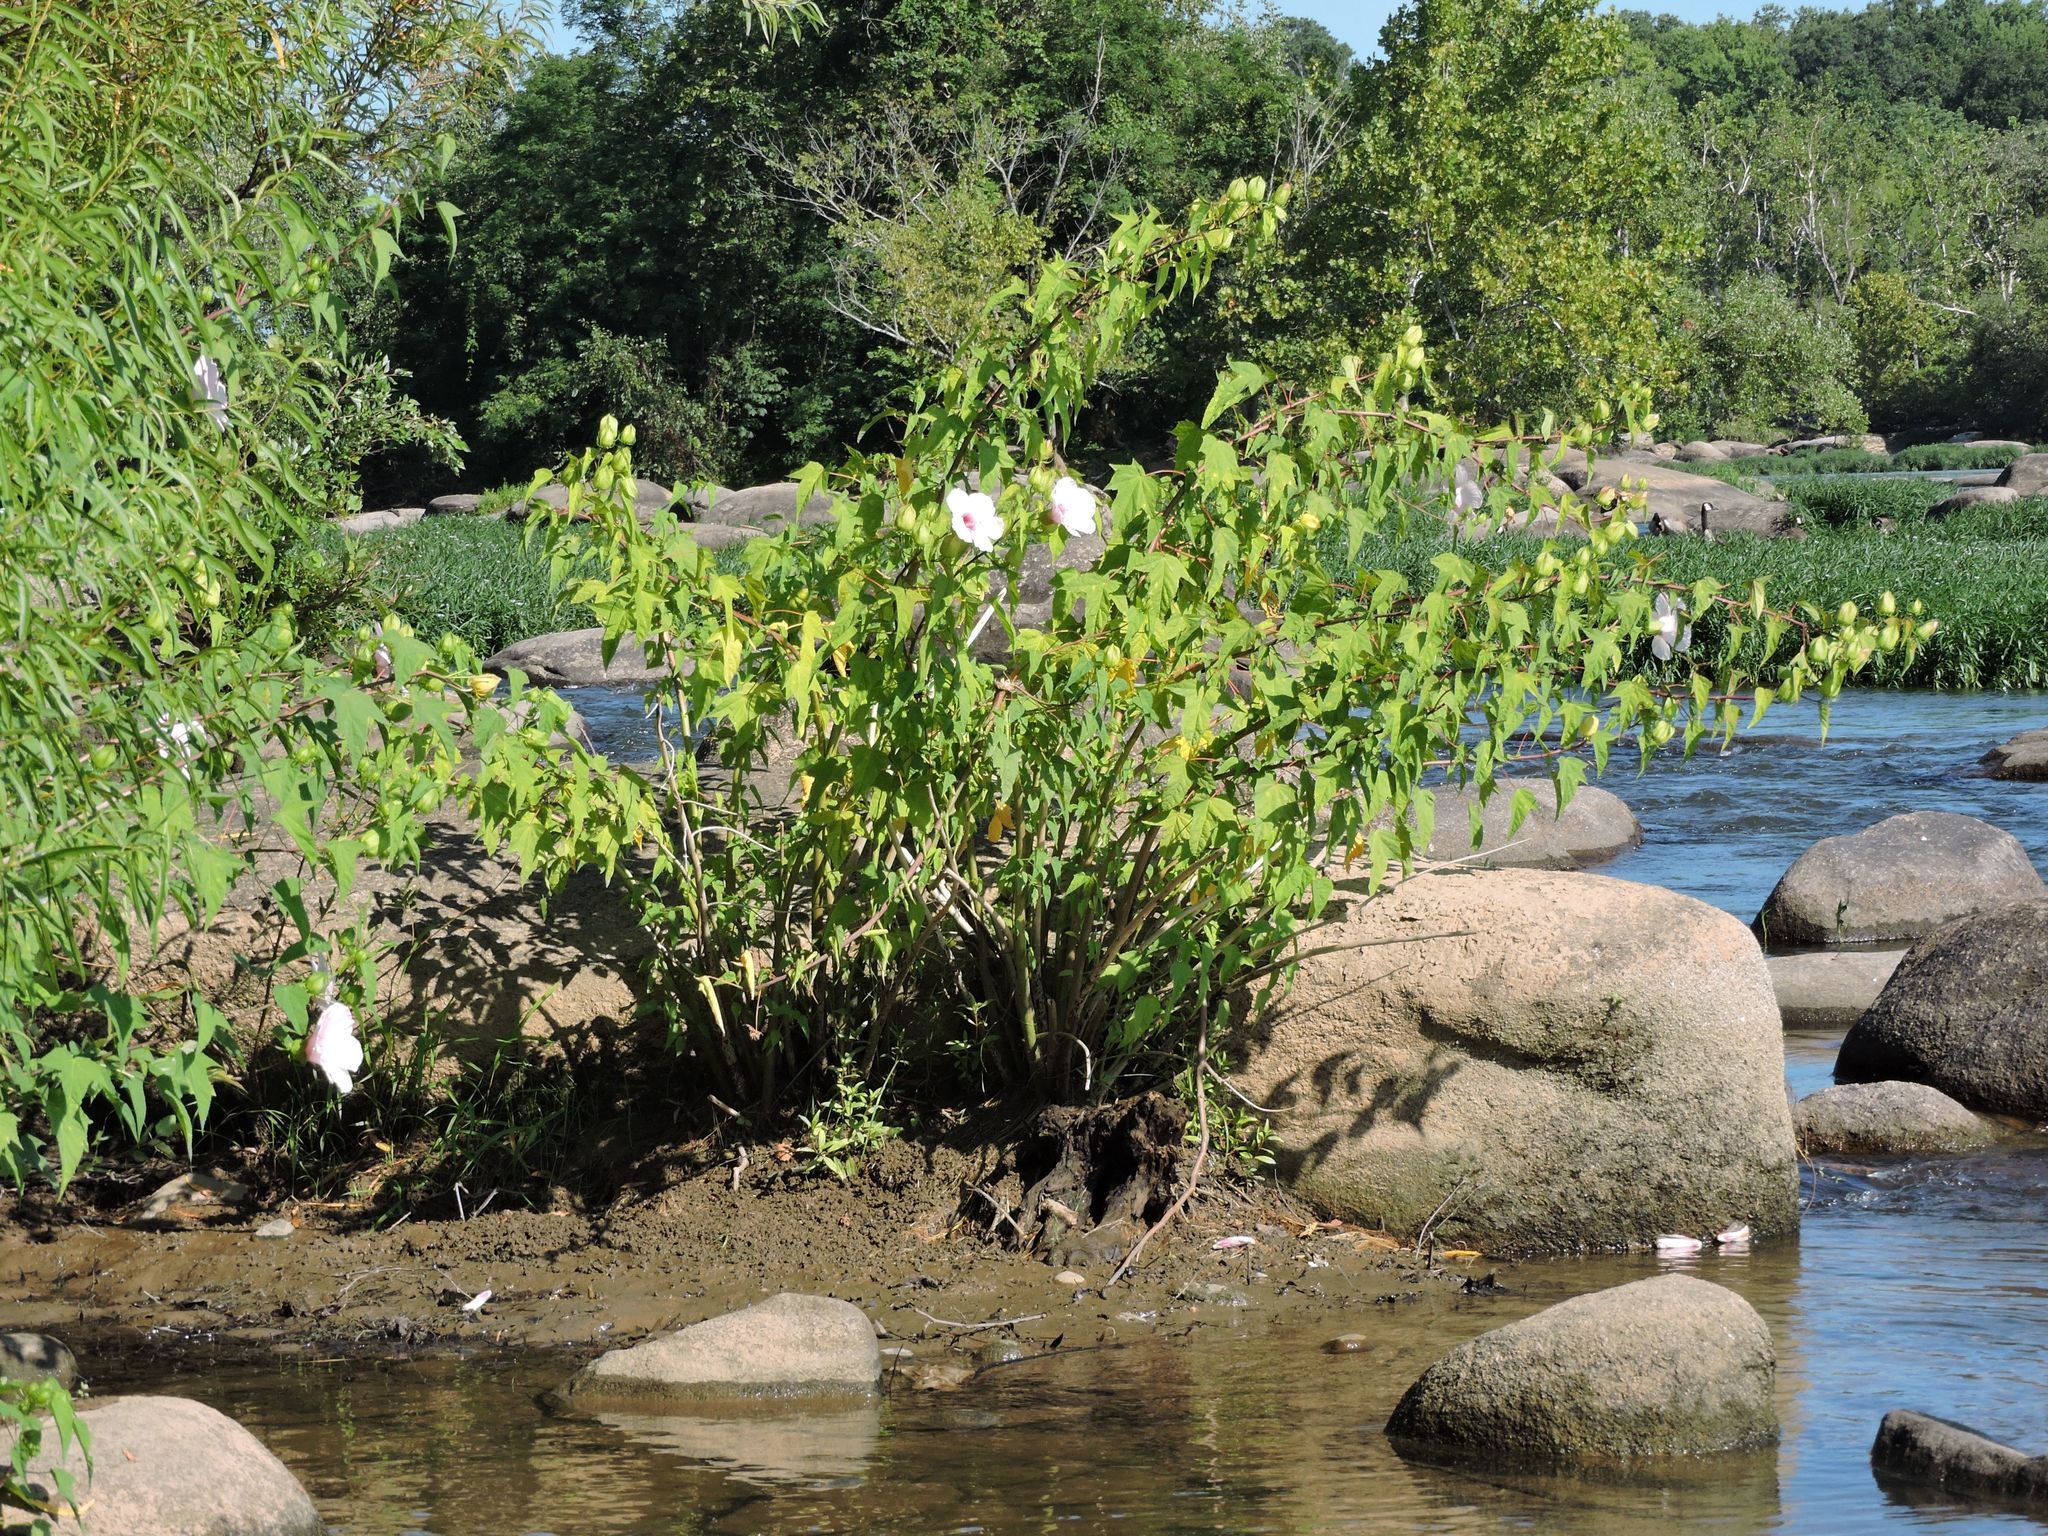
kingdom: Plantae
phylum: Tracheophyta
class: Magnoliopsida
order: Malvales
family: Malvaceae
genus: Hibiscus
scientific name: Hibiscus laevis
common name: Scarlet rose-mallow
